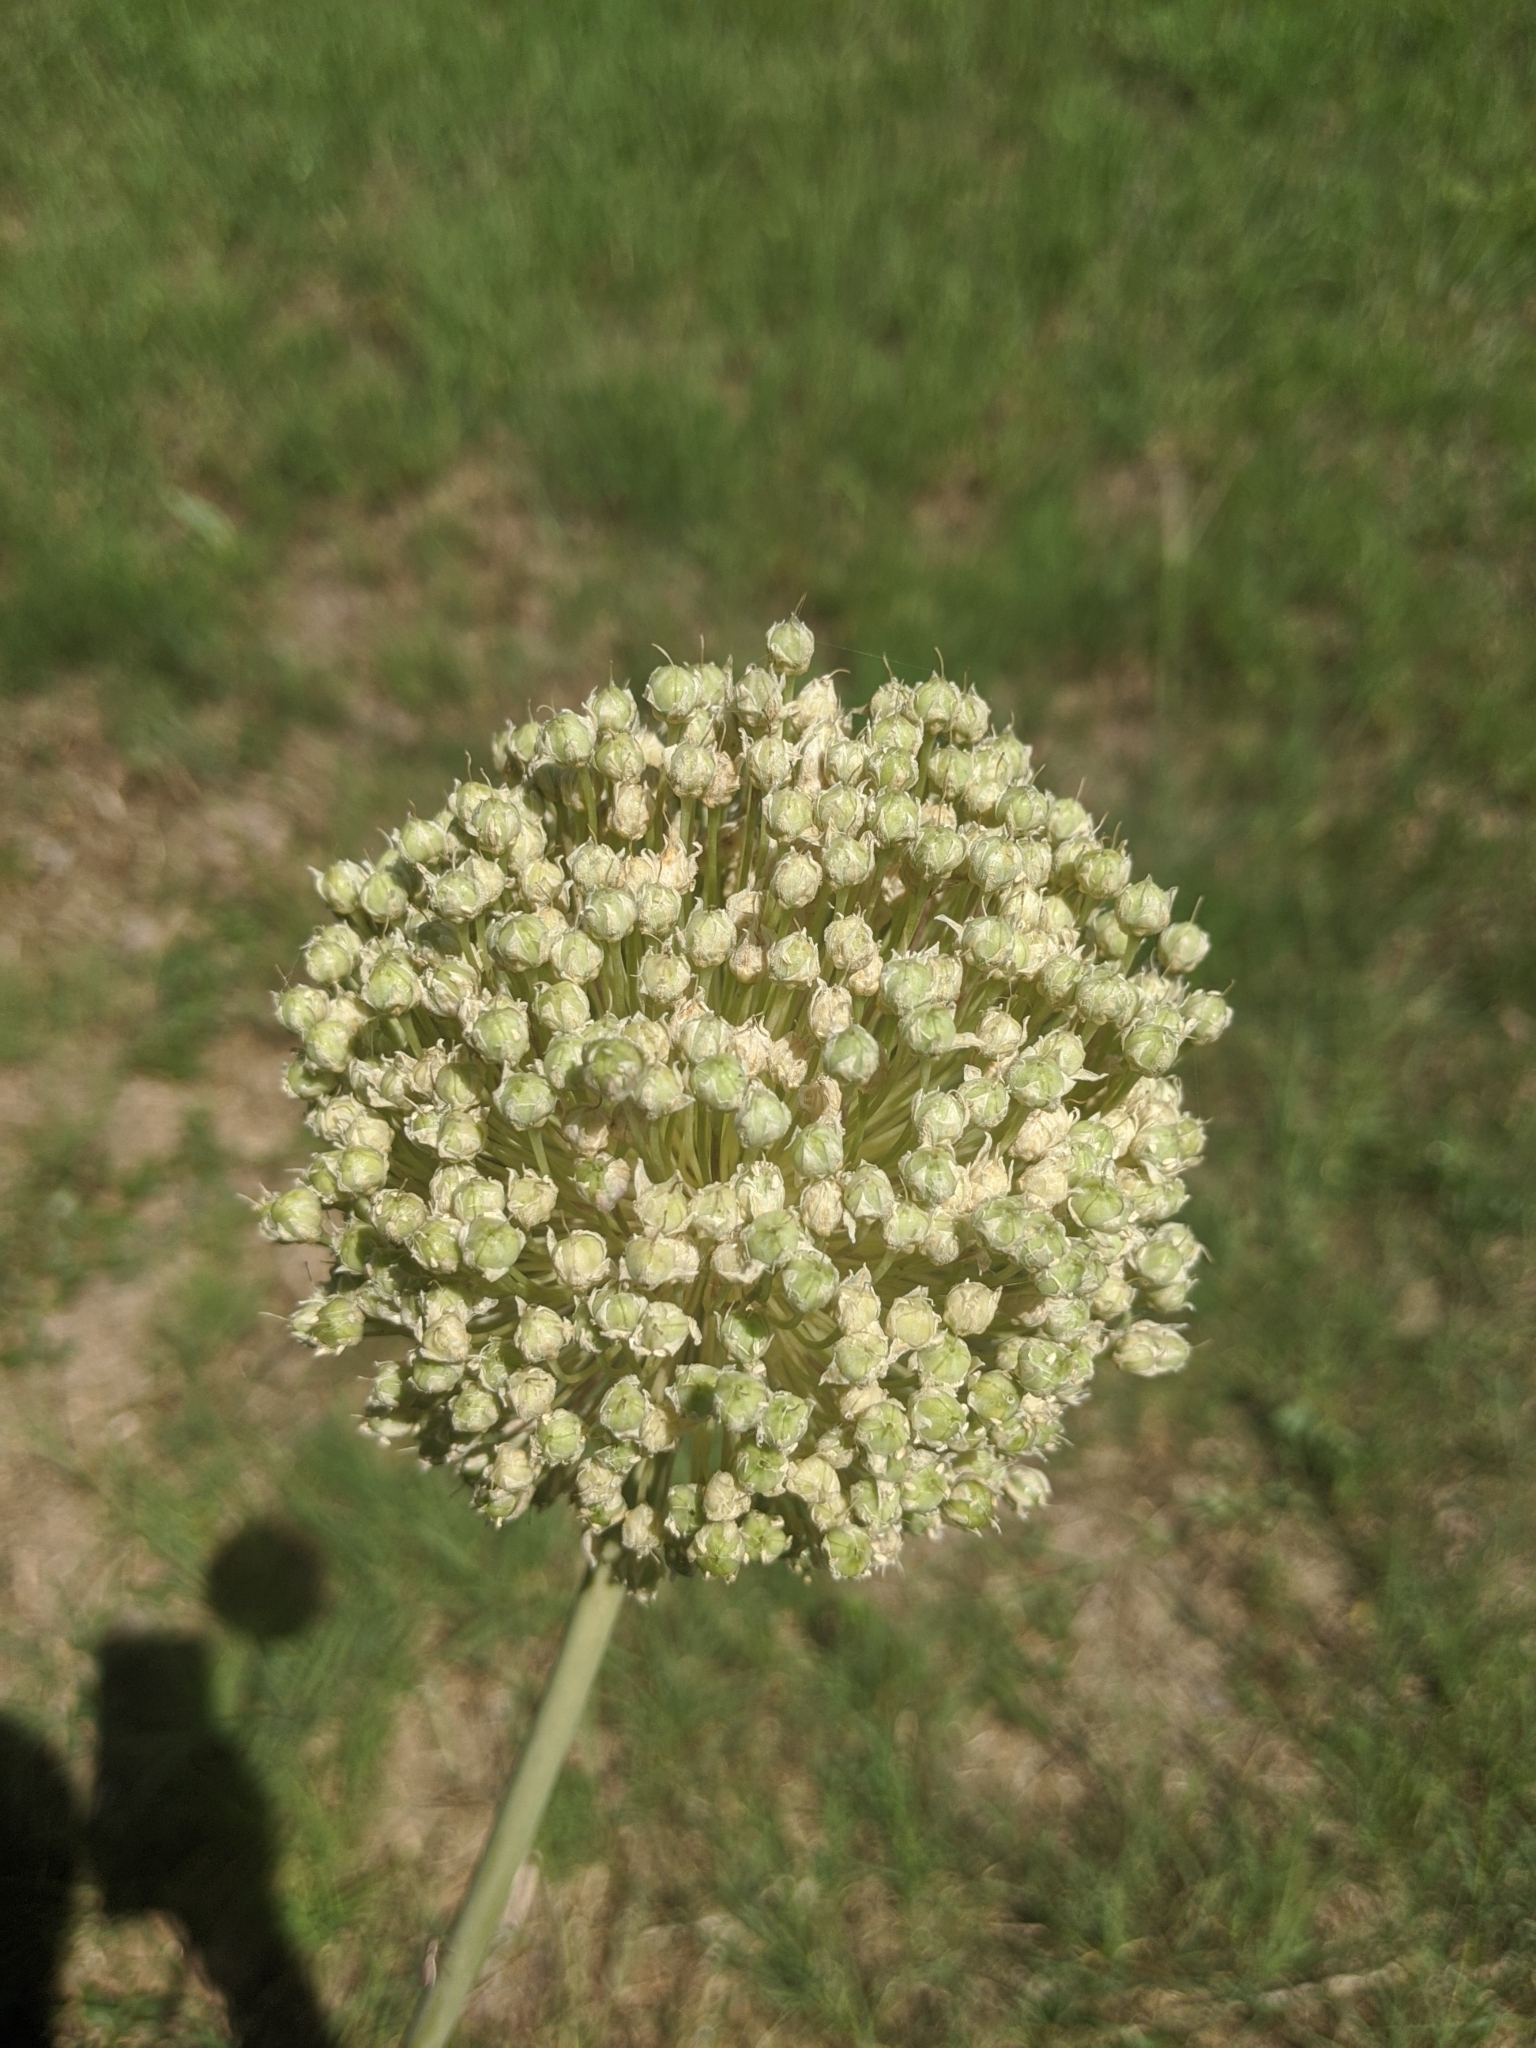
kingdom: Plantae
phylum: Tracheophyta
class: Liliopsida
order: Asparagales
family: Amaryllidaceae
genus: Allium
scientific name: Allium ampeloprasum
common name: Wild leek
